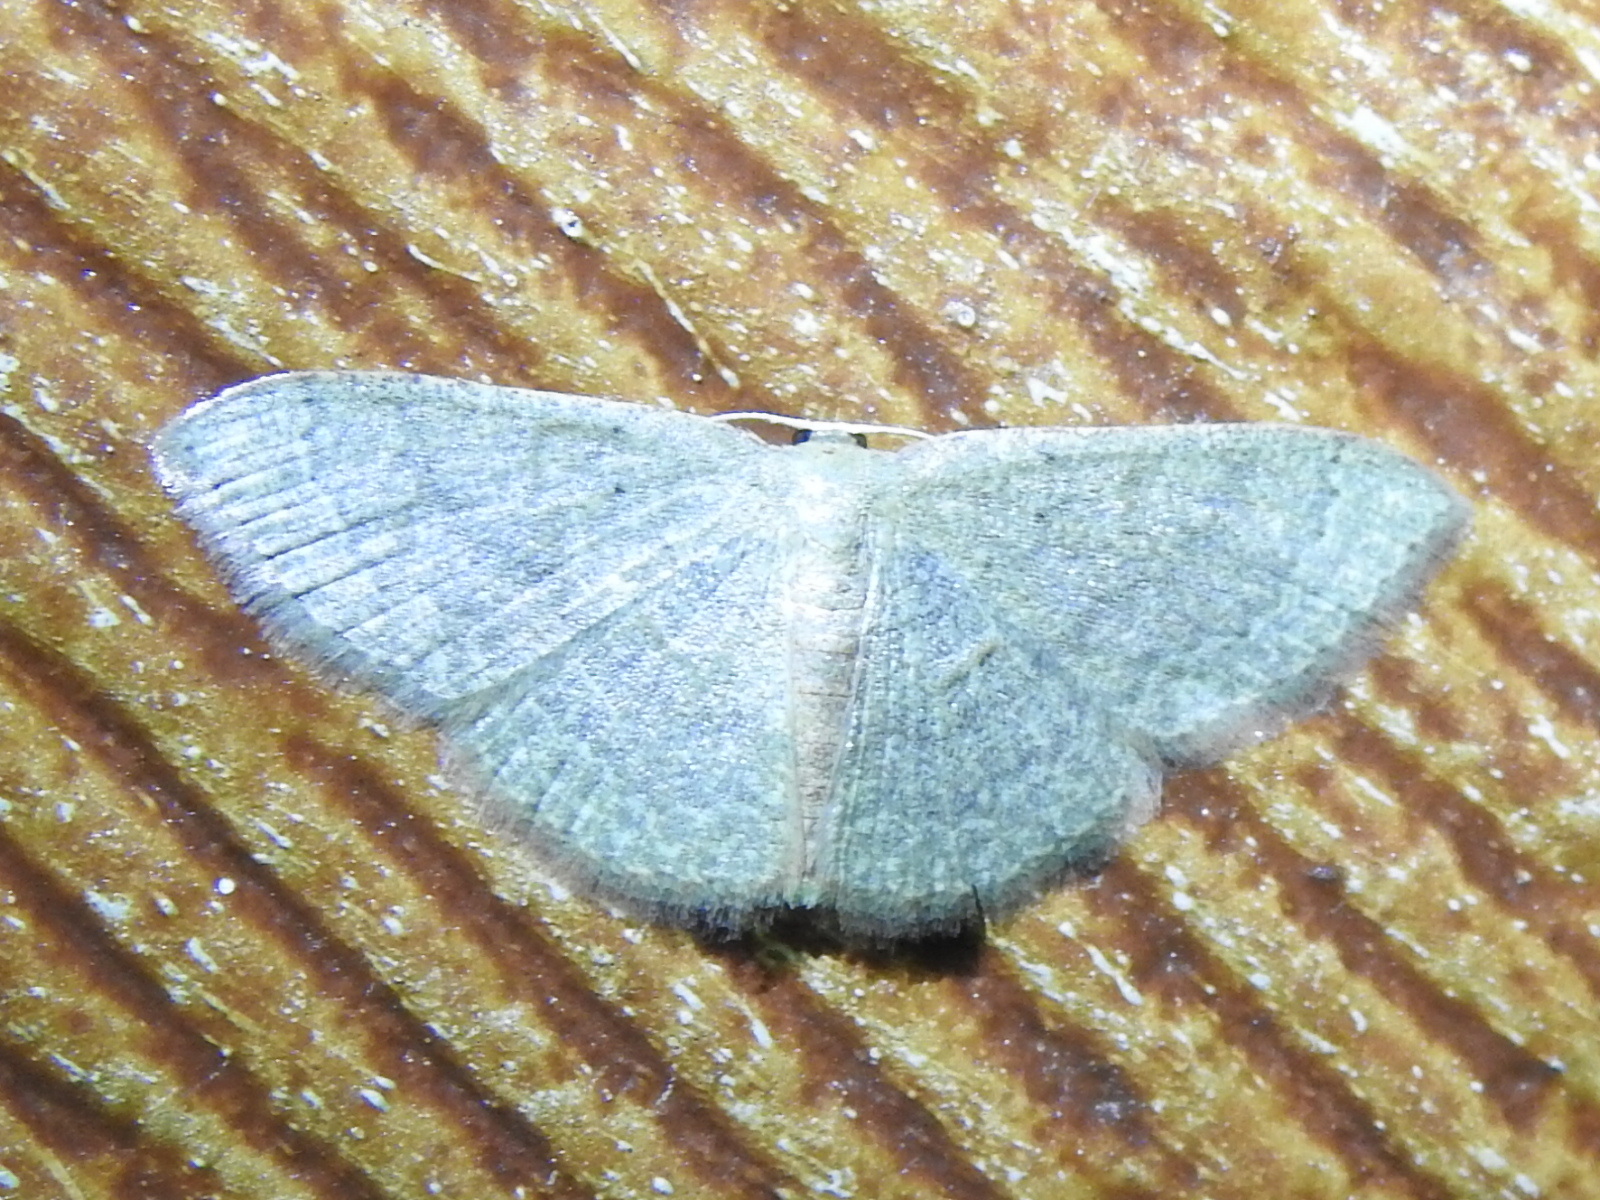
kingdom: Animalia
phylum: Arthropoda
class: Insecta
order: Lepidoptera
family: Geometridae
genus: Pleuroprucha
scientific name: Pleuroprucha insulsaria
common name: Common tan wave
